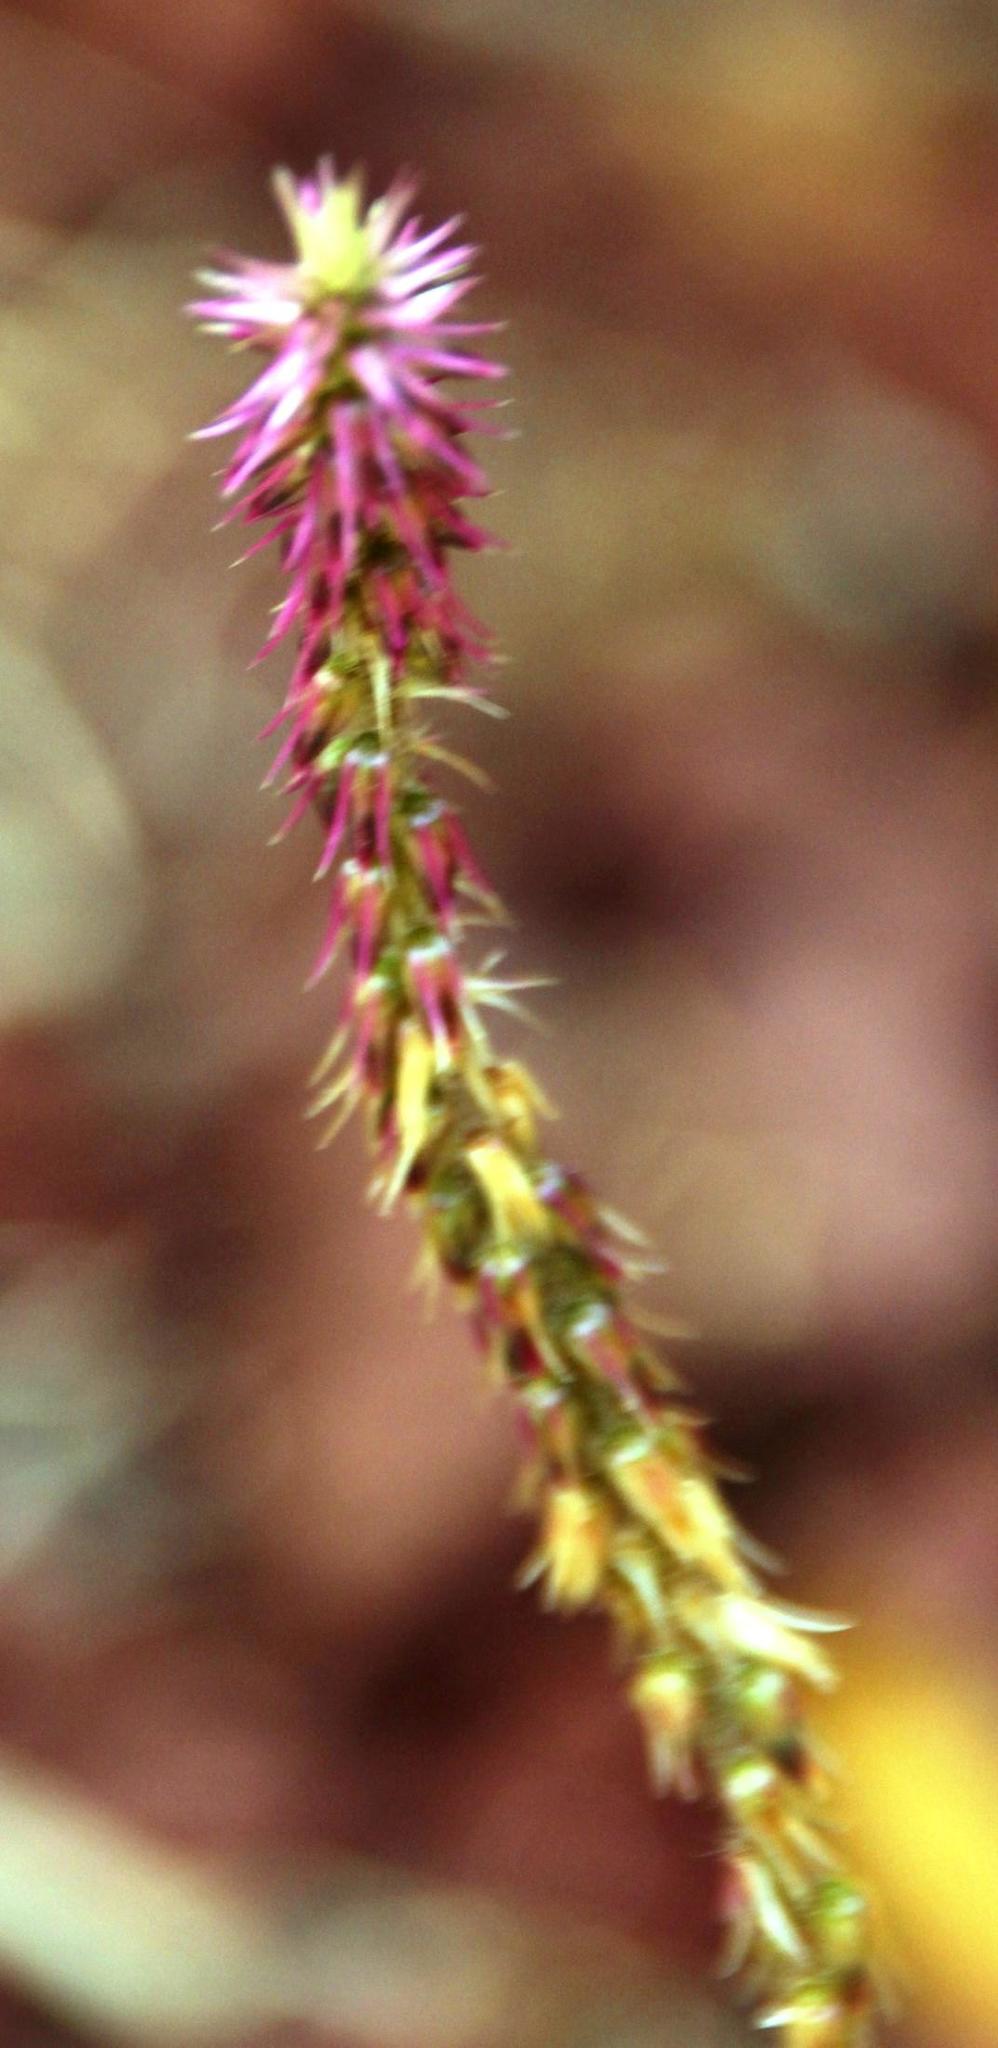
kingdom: Plantae
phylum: Tracheophyta
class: Magnoliopsida
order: Caryophyllales
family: Amaranthaceae
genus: Achyranthes
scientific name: Achyranthes aspera
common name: Devil's horsewhip
